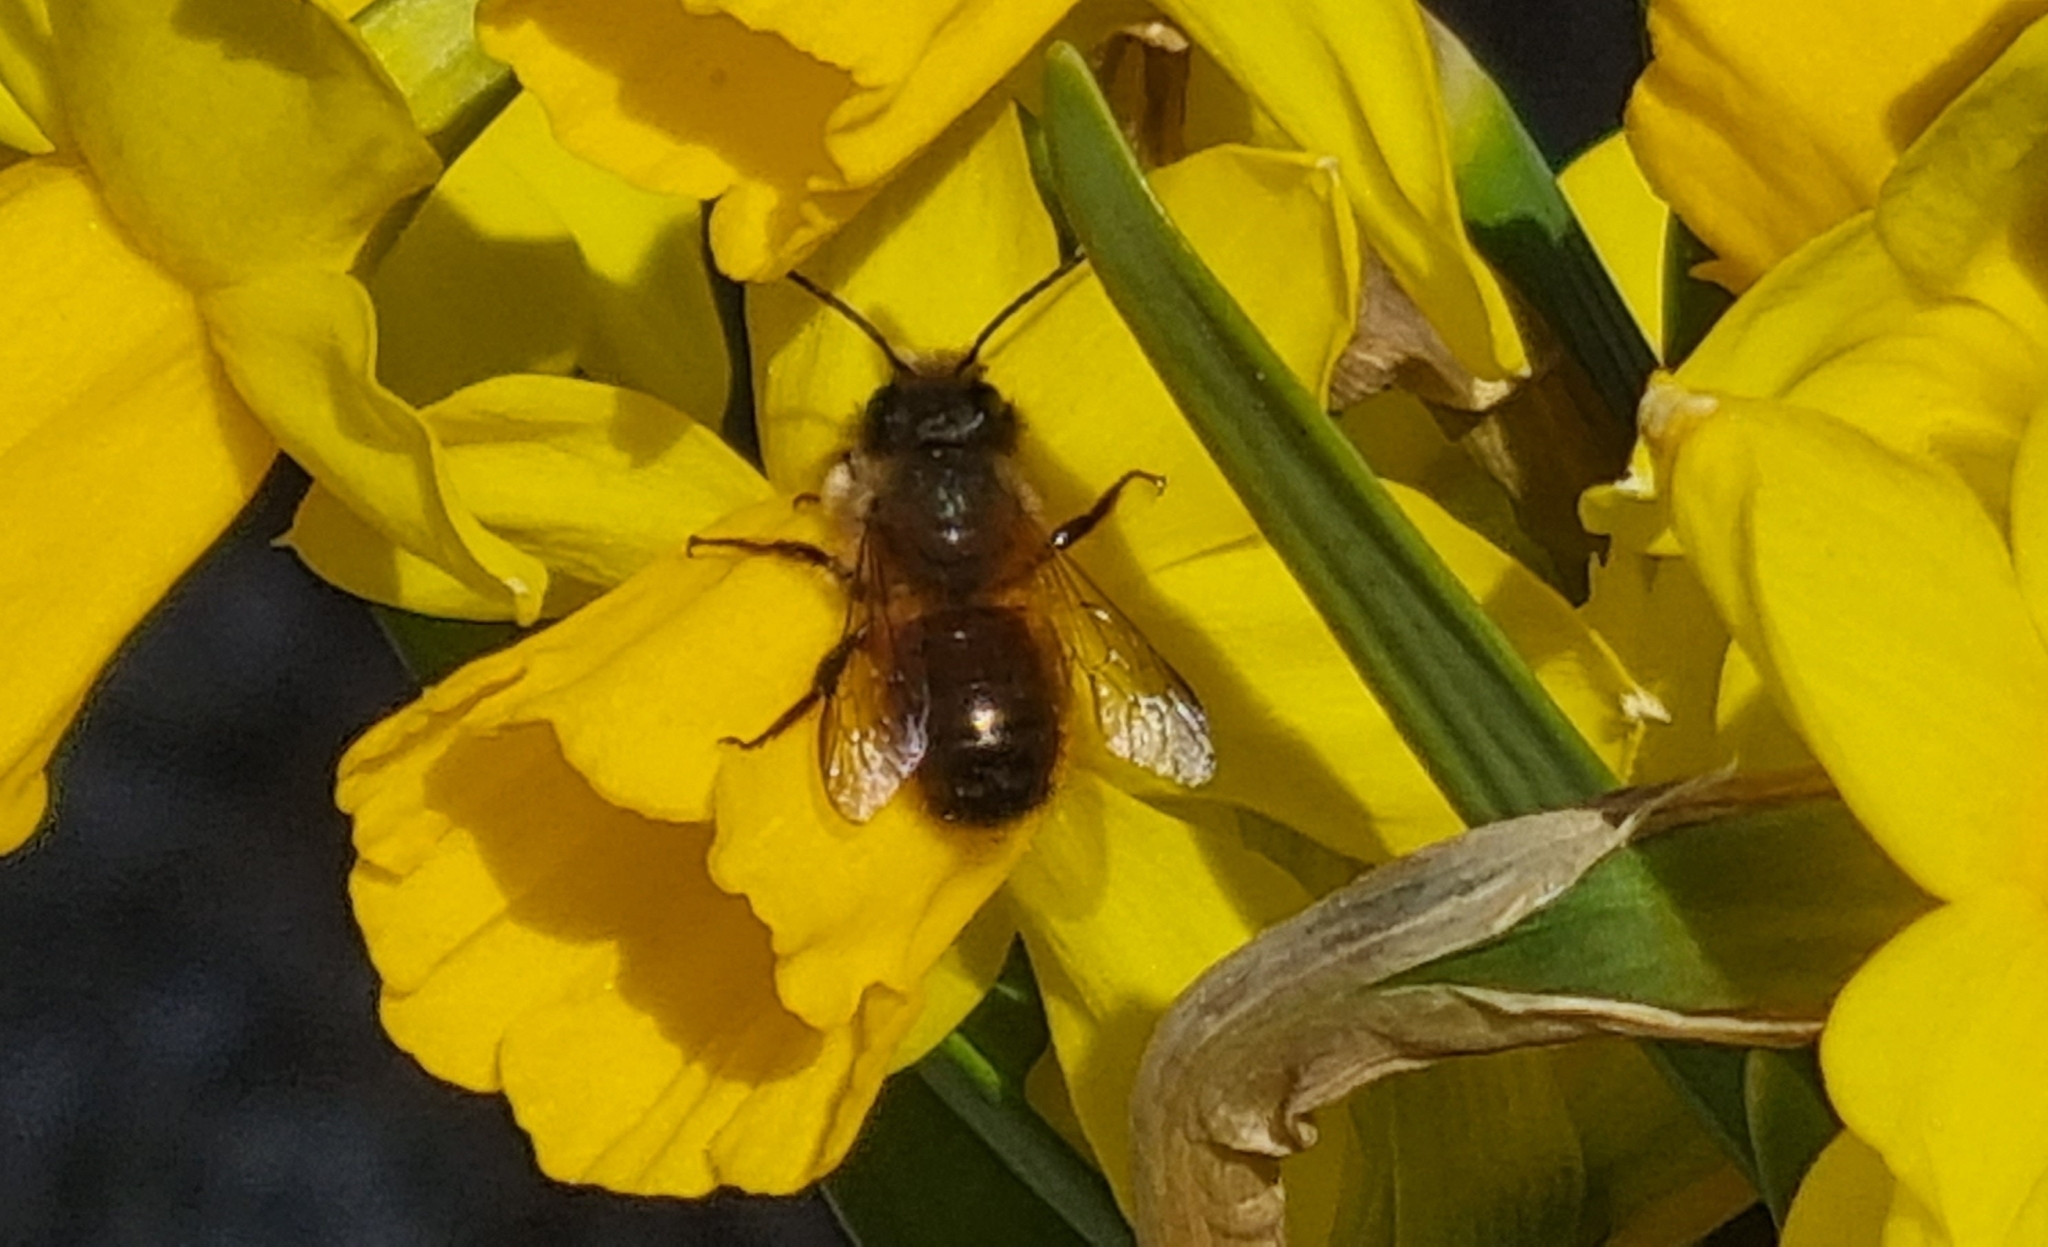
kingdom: Animalia
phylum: Arthropoda
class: Insecta
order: Hymenoptera
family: Megachilidae
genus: Osmia
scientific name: Osmia bicornis
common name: Red mason bee
